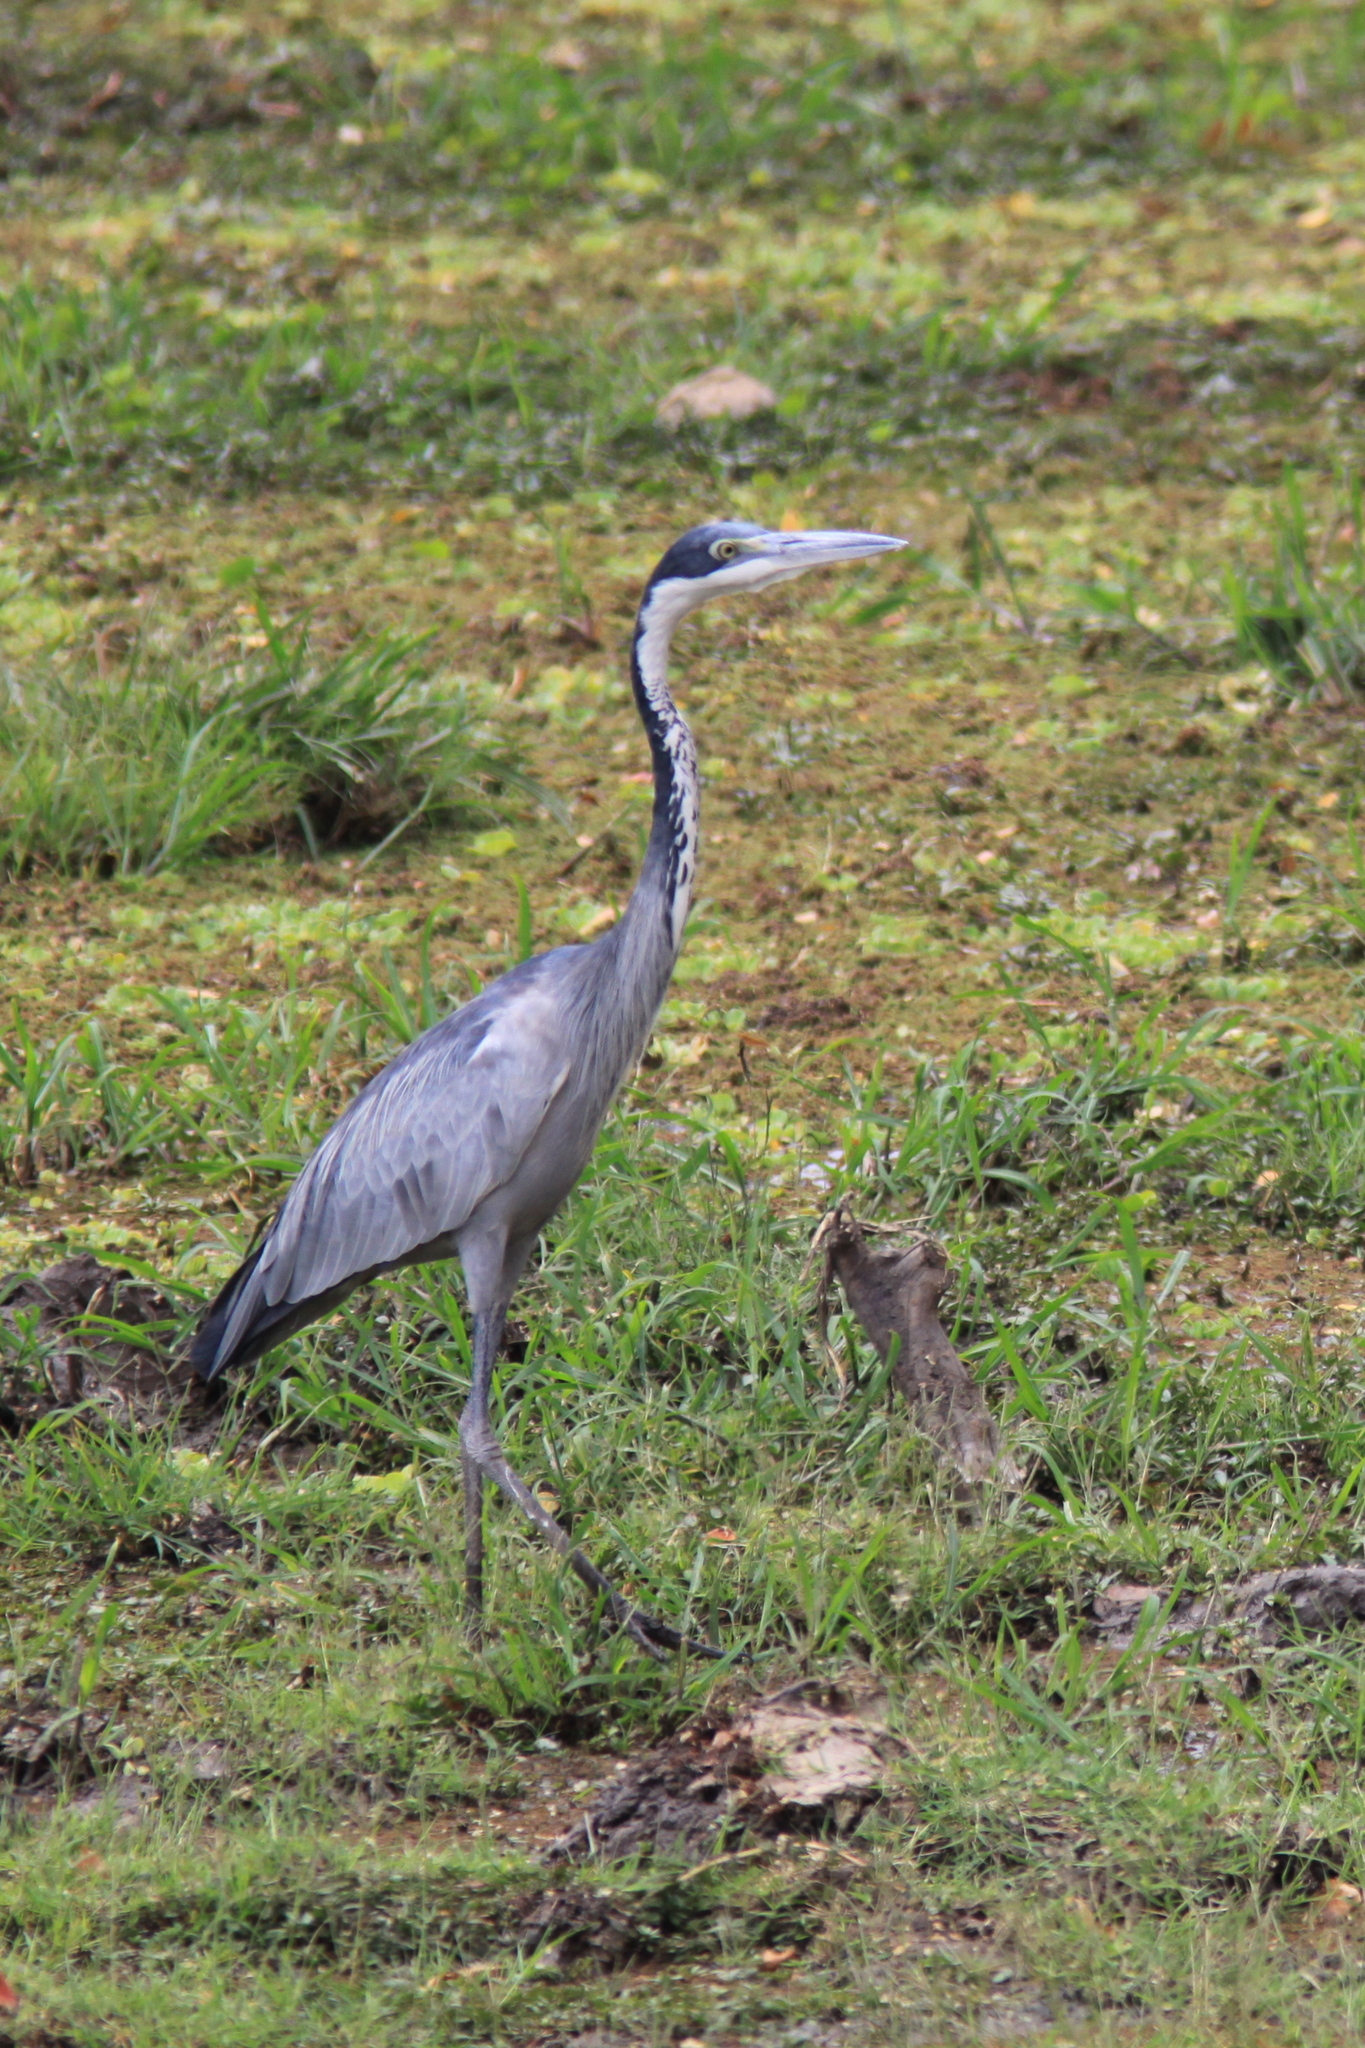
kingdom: Animalia
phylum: Chordata
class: Aves
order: Pelecaniformes
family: Ardeidae
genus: Ardea
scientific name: Ardea melanocephala
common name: Black-headed heron
